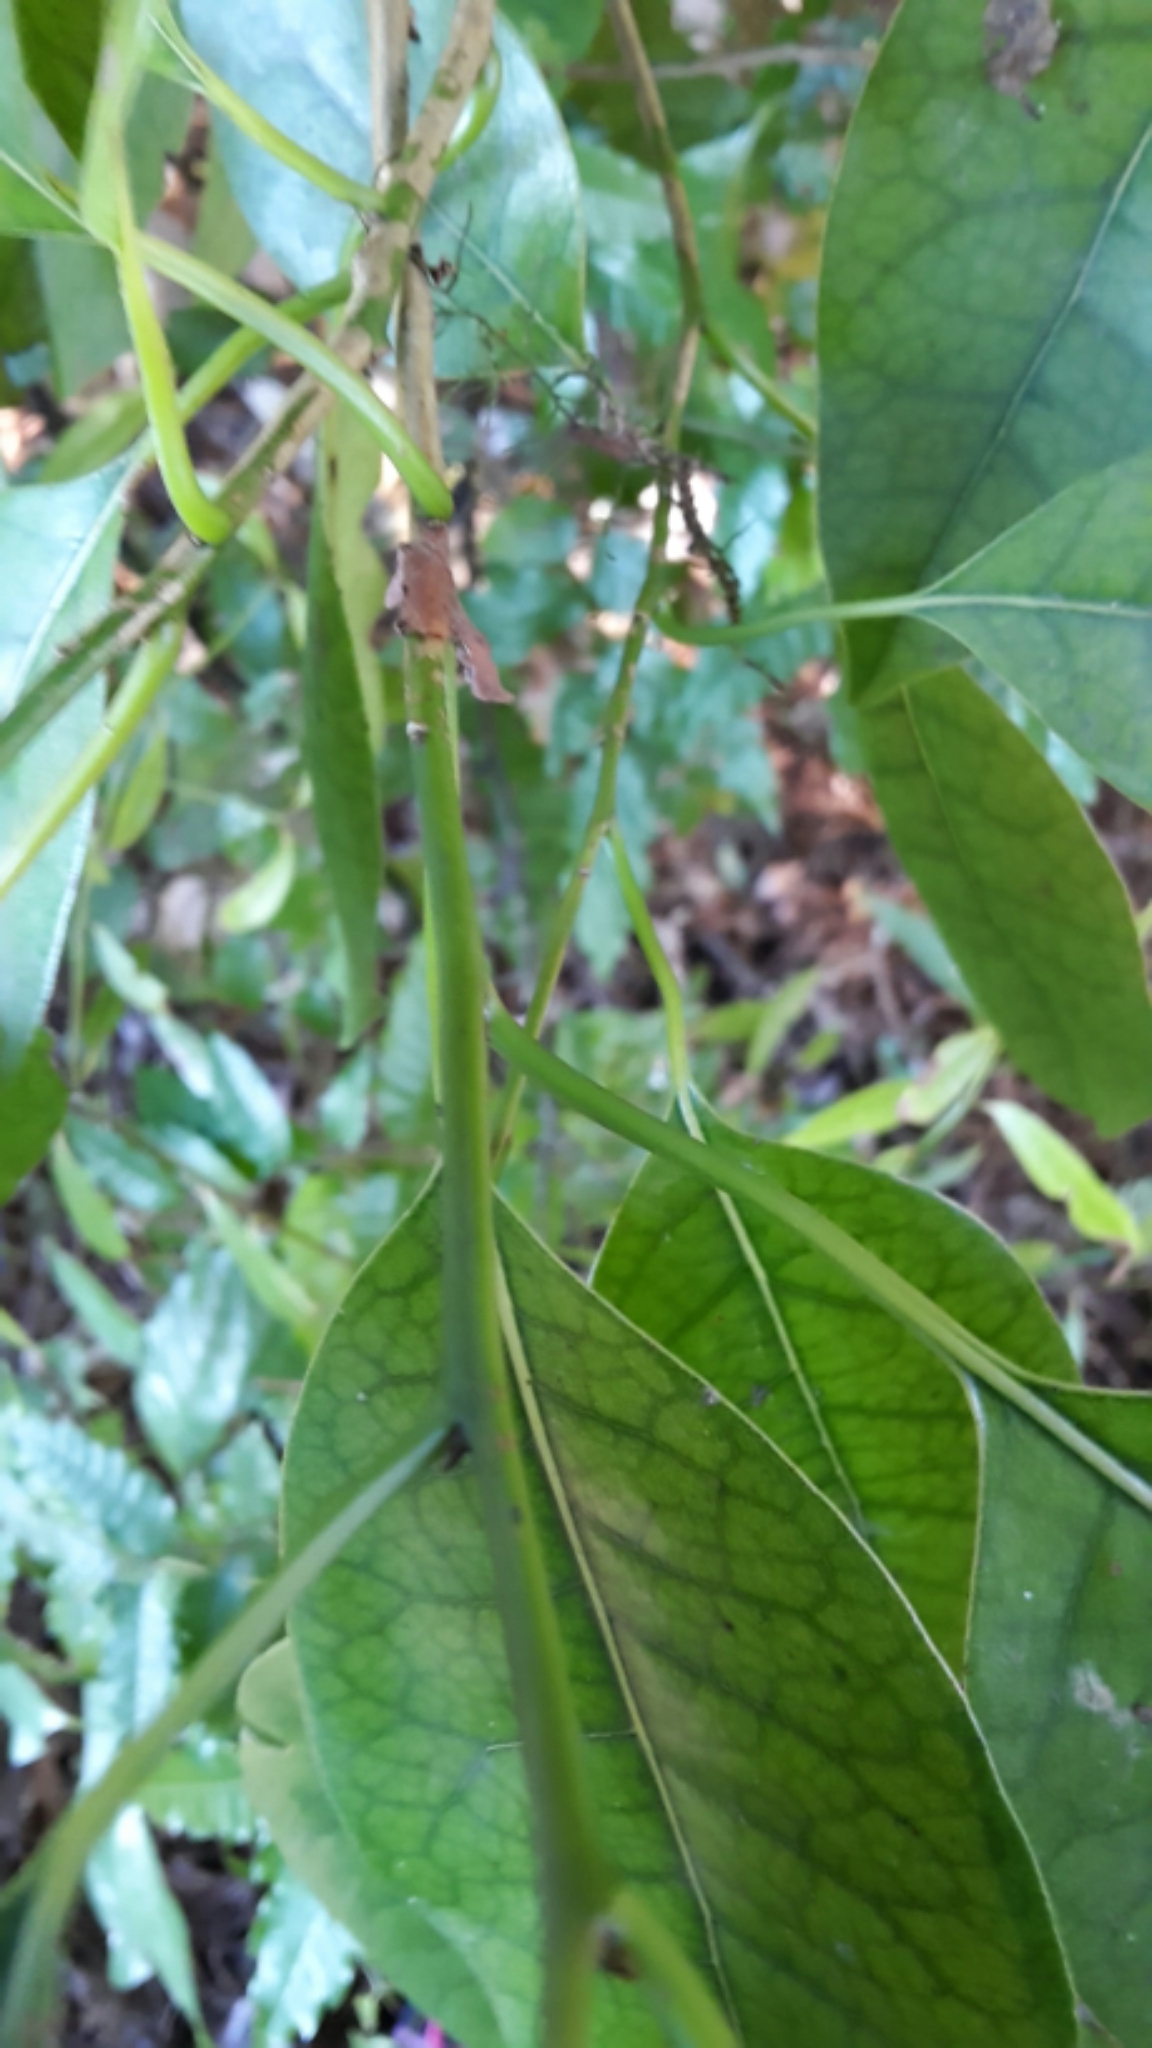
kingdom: Plantae
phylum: Tracheophyta
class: Magnoliopsida
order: Laurales
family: Lauraceae
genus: Litsea
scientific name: Litsea calicaris
